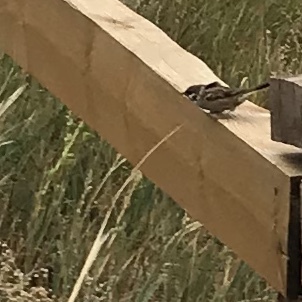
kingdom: Animalia
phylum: Chordata
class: Aves
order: Passeriformes
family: Passeridae
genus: Passer
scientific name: Passer montanus
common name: Eurasian tree sparrow
